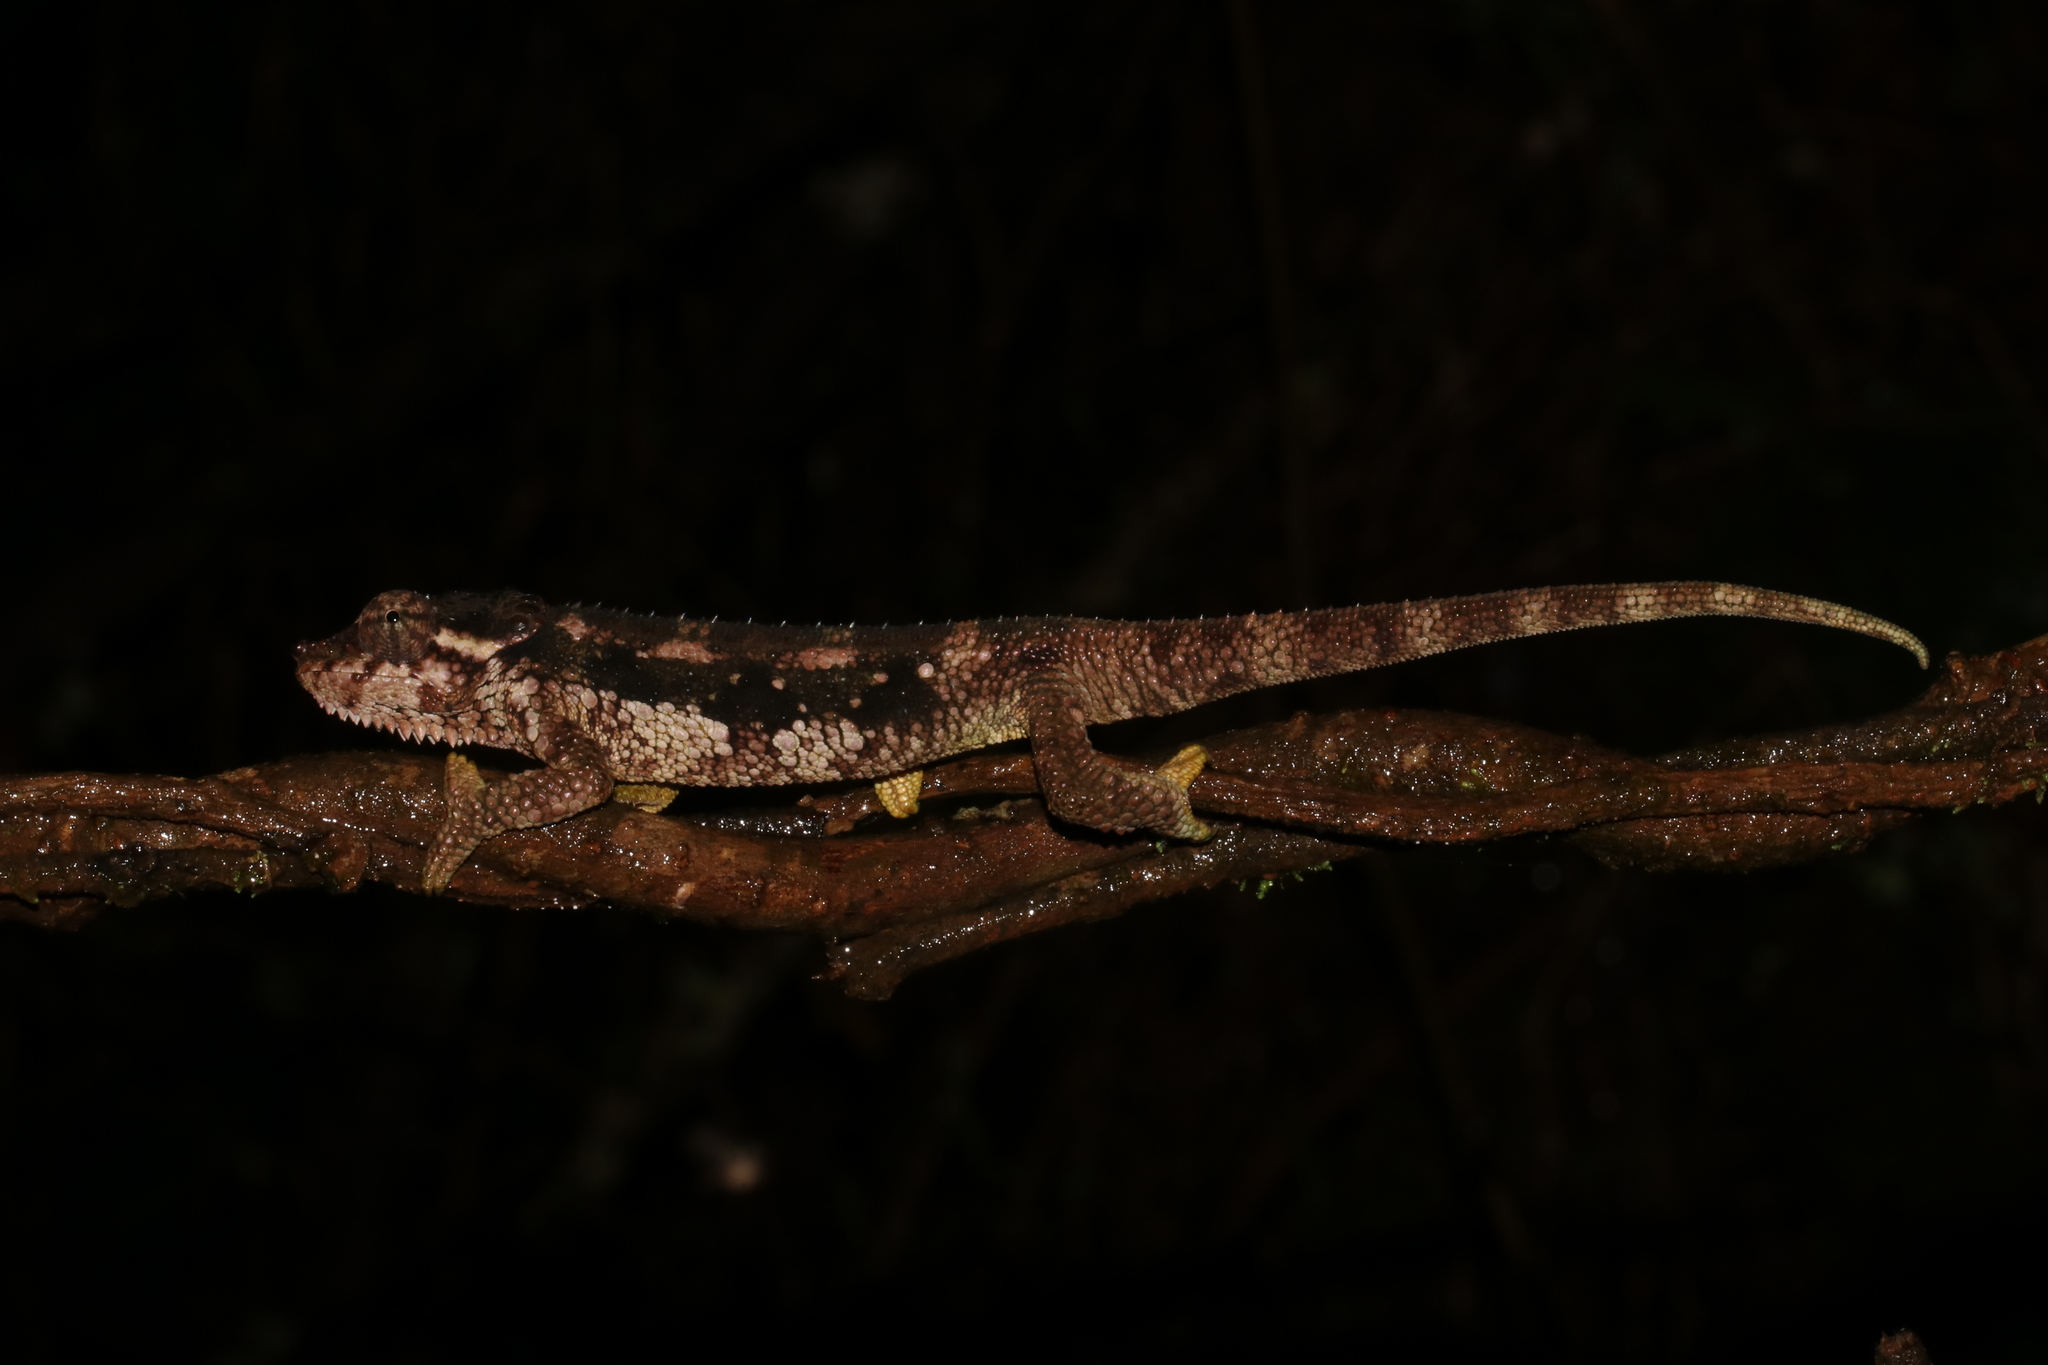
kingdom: Animalia
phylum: Chordata
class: Squamata
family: Chamaeleonidae
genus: Trioceros
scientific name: Trioceros tempeli
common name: Tanzania mountain chameleon
